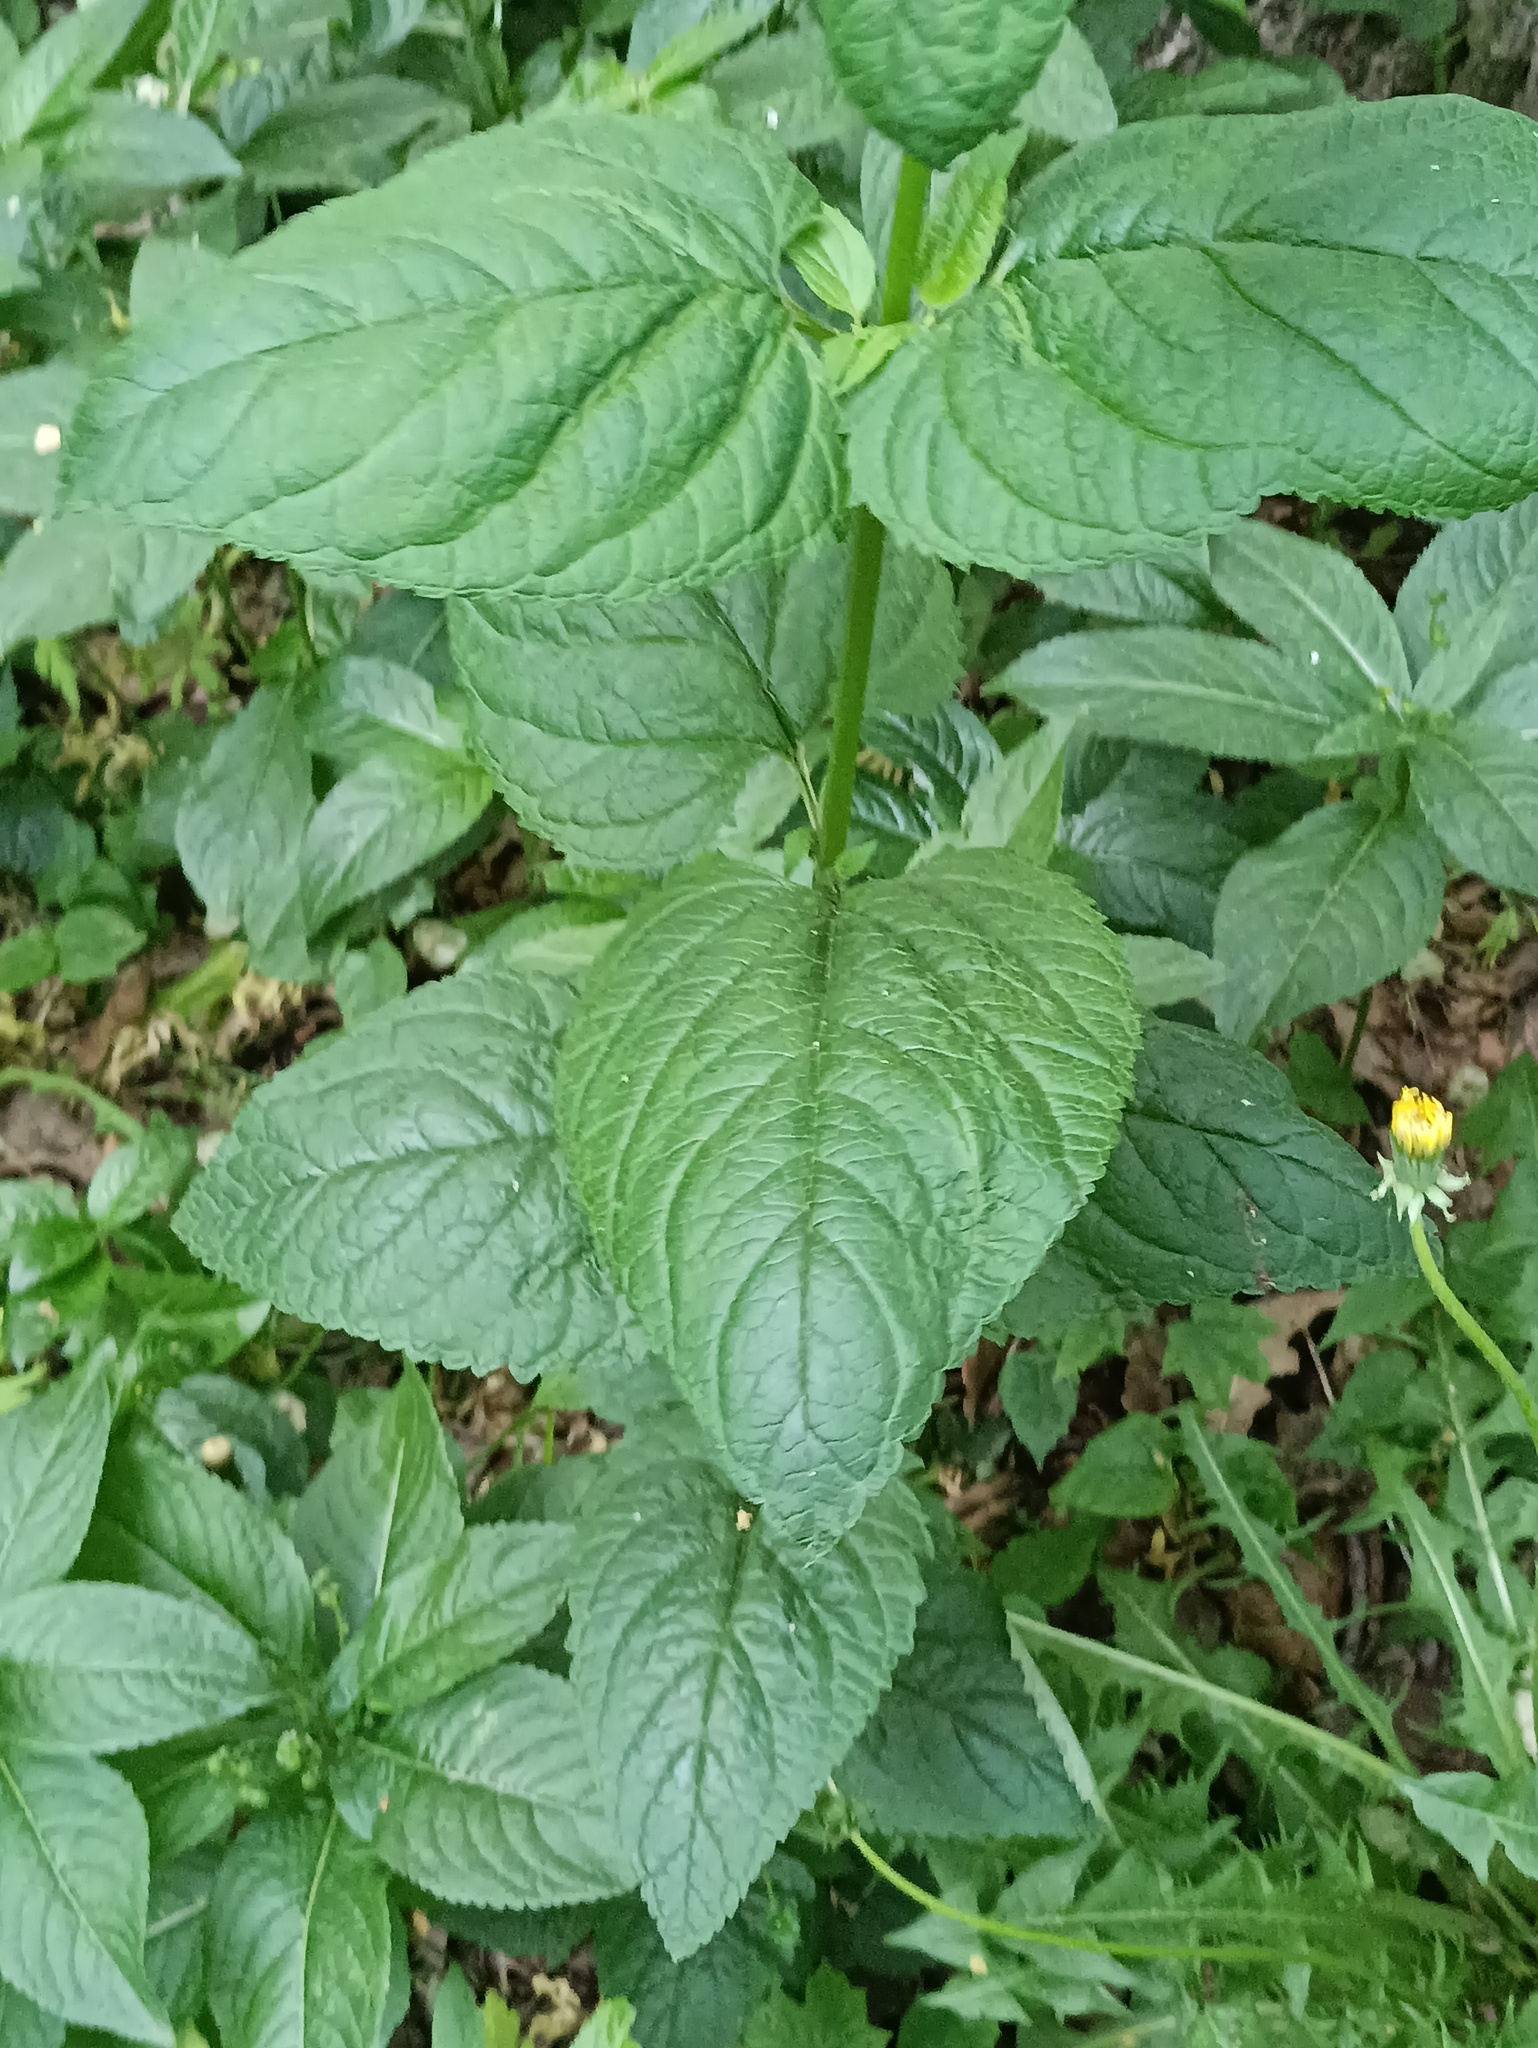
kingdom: Plantae
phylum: Tracheophyta
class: Magnoliopsida
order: Lamiales
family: Scrophulariaceae
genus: Scrophularia
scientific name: Scrophularia nodosa
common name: Common figwort
